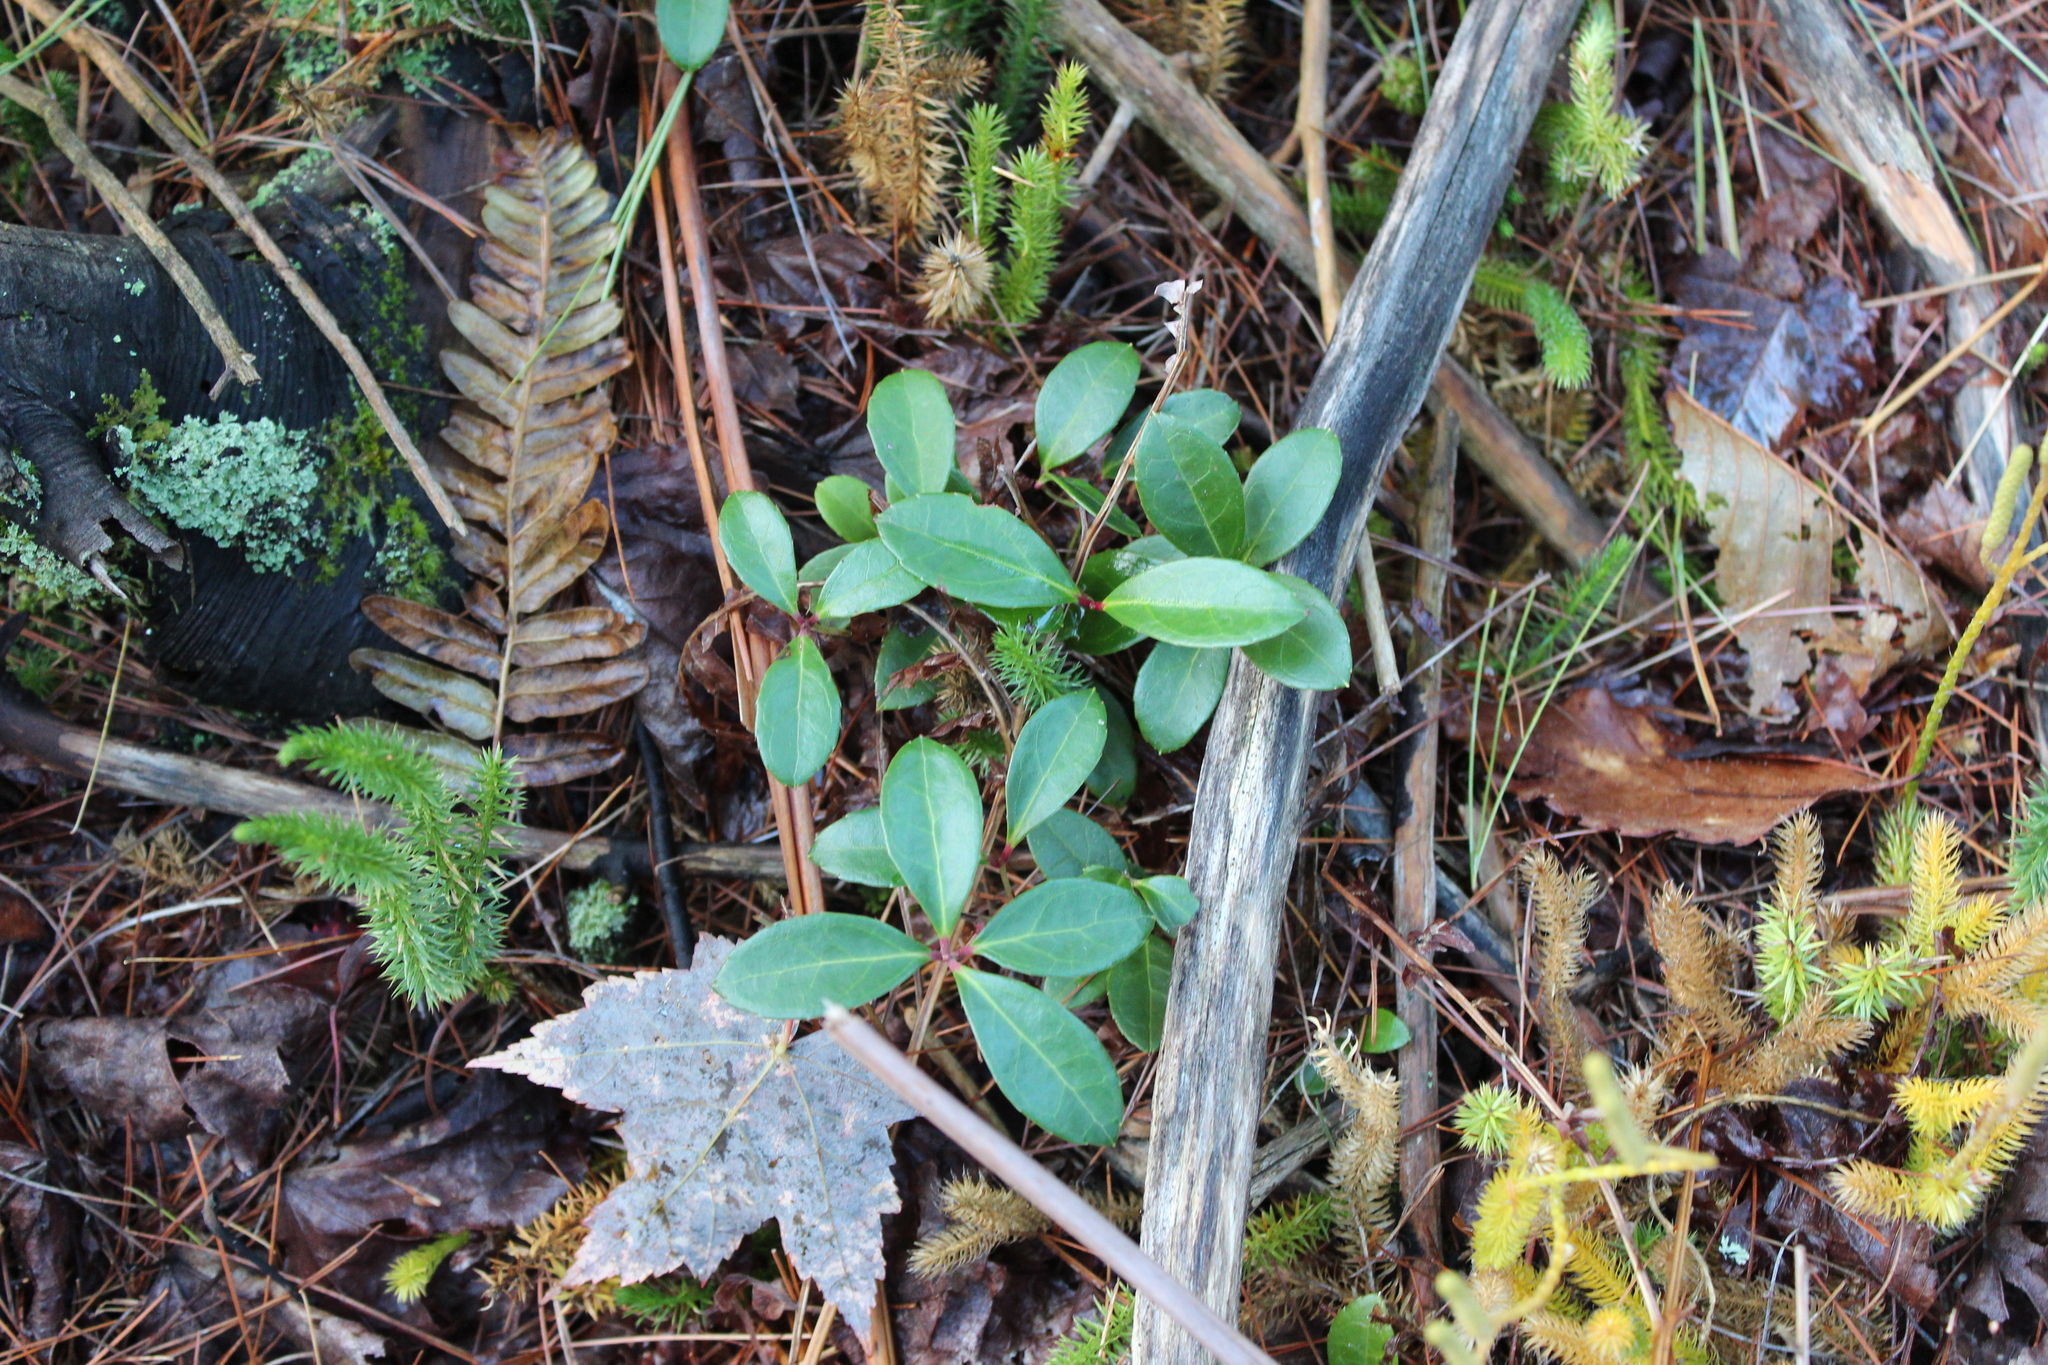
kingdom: Plantae
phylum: Tracheophyta
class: Magnoliopsida
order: Ericales
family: Ericaceae
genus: Gaultheria
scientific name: Gaultheria procumbens
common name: Checkerberry
